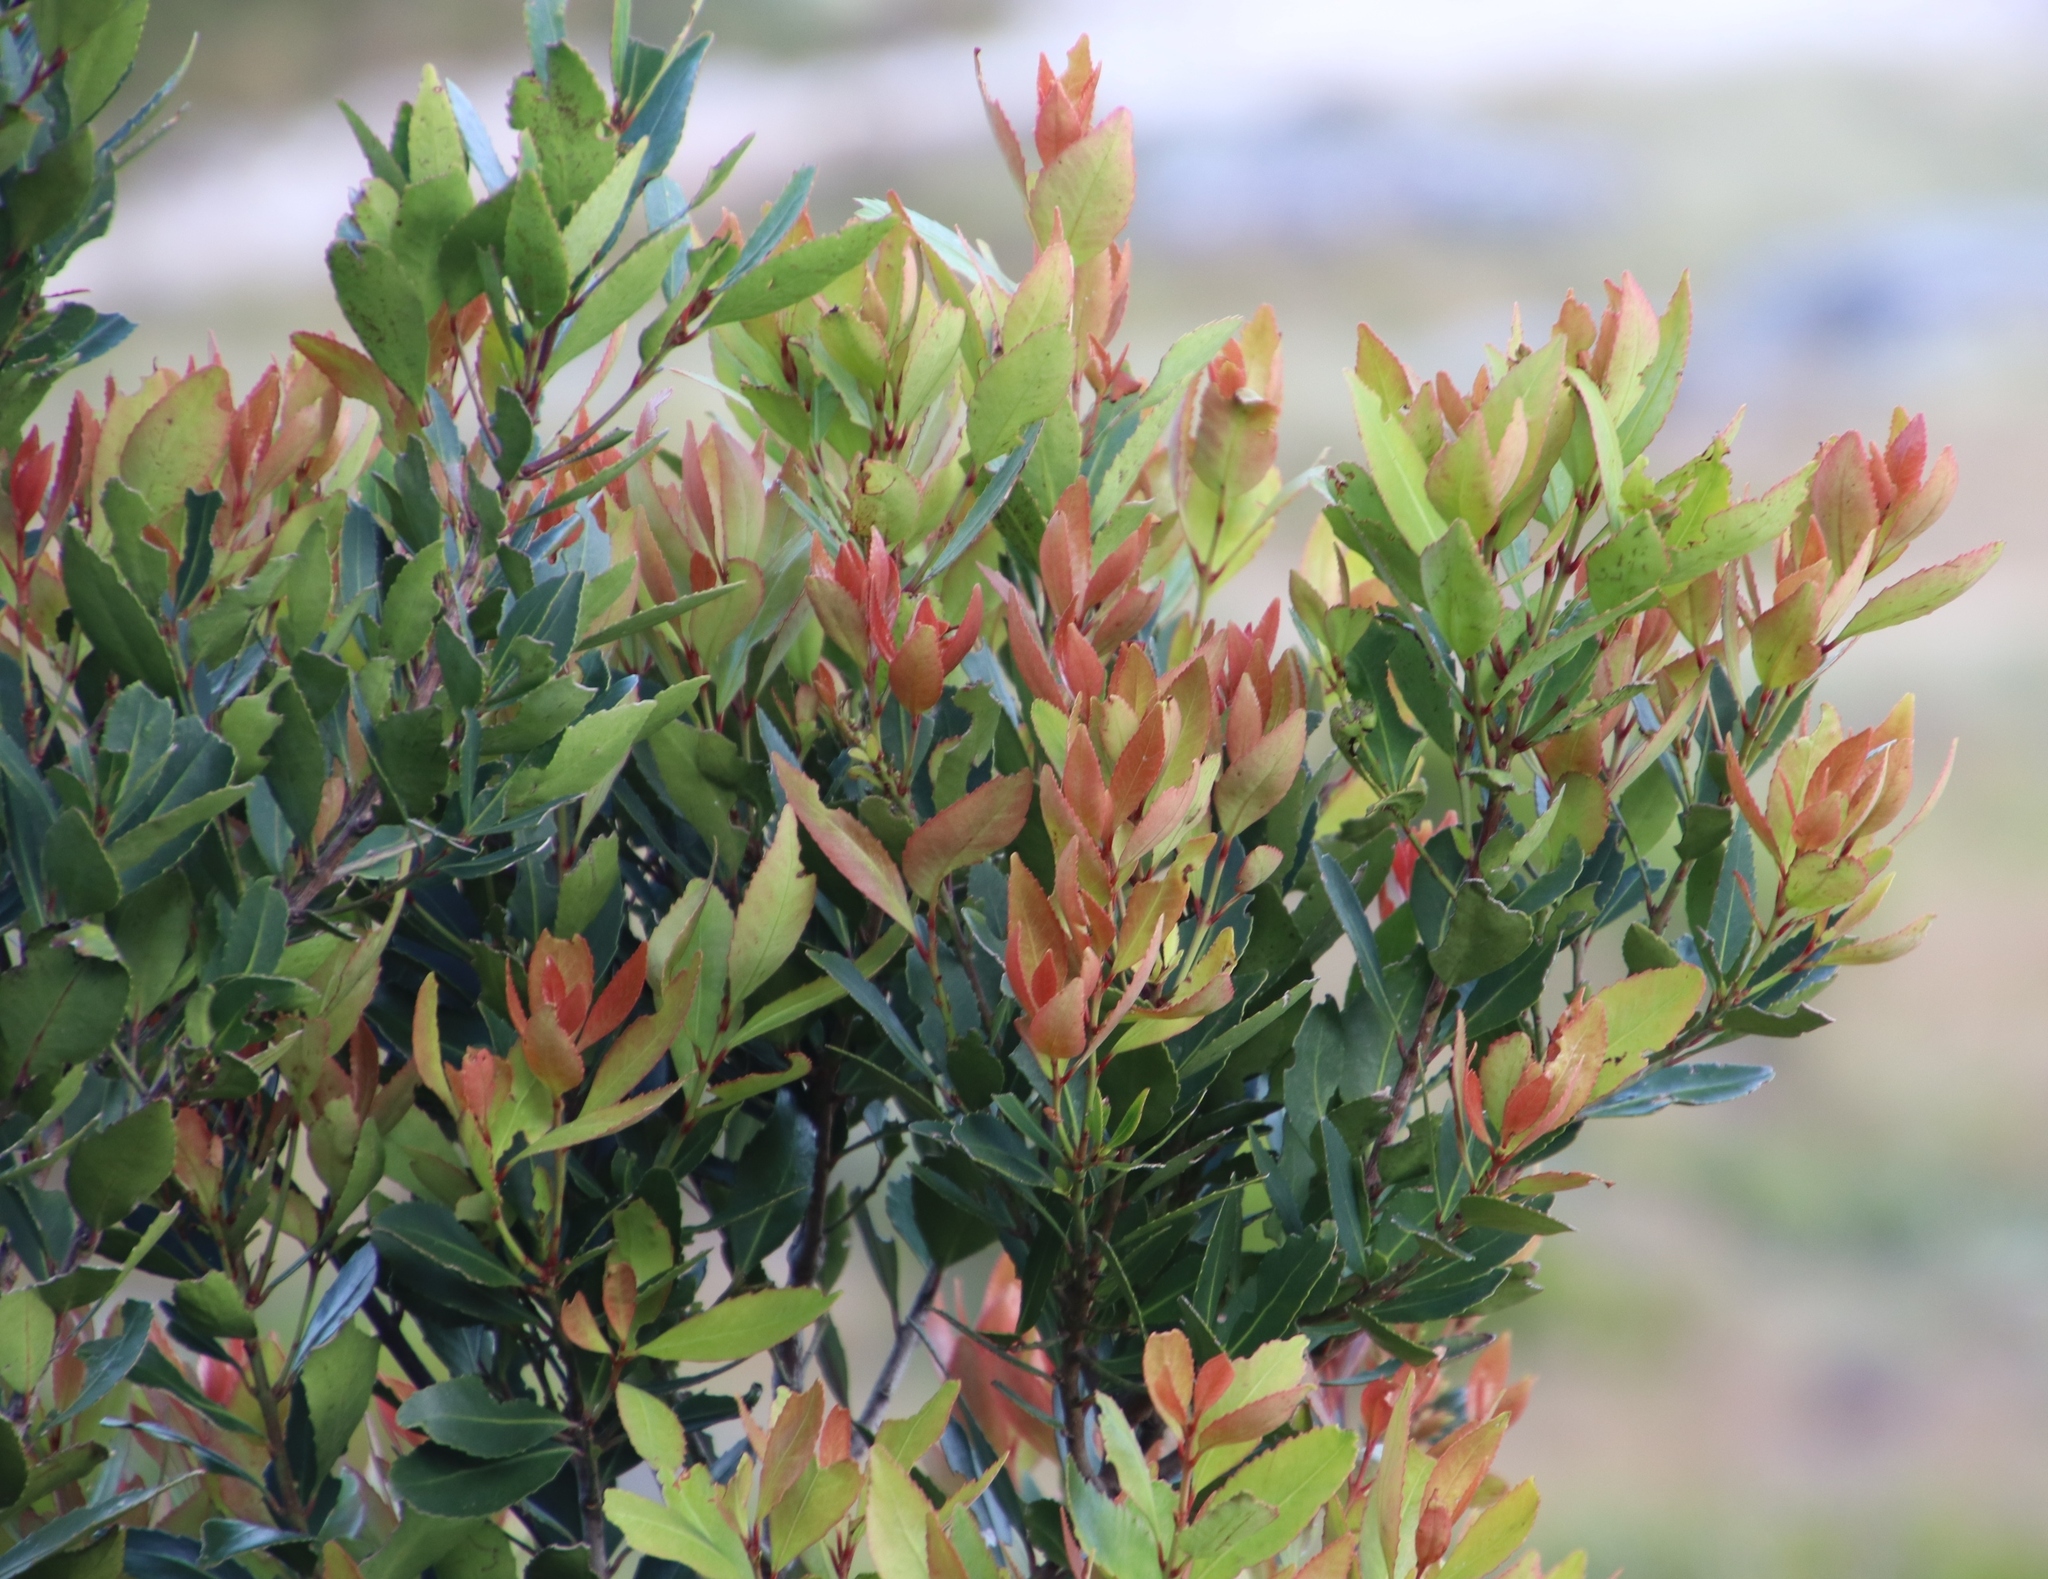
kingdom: Plantae
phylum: Tracheophyta
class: Magnoliopsida
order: Celastrales
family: Celastraceae
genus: Elaeodendron
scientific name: Elaeodendron schinoides
